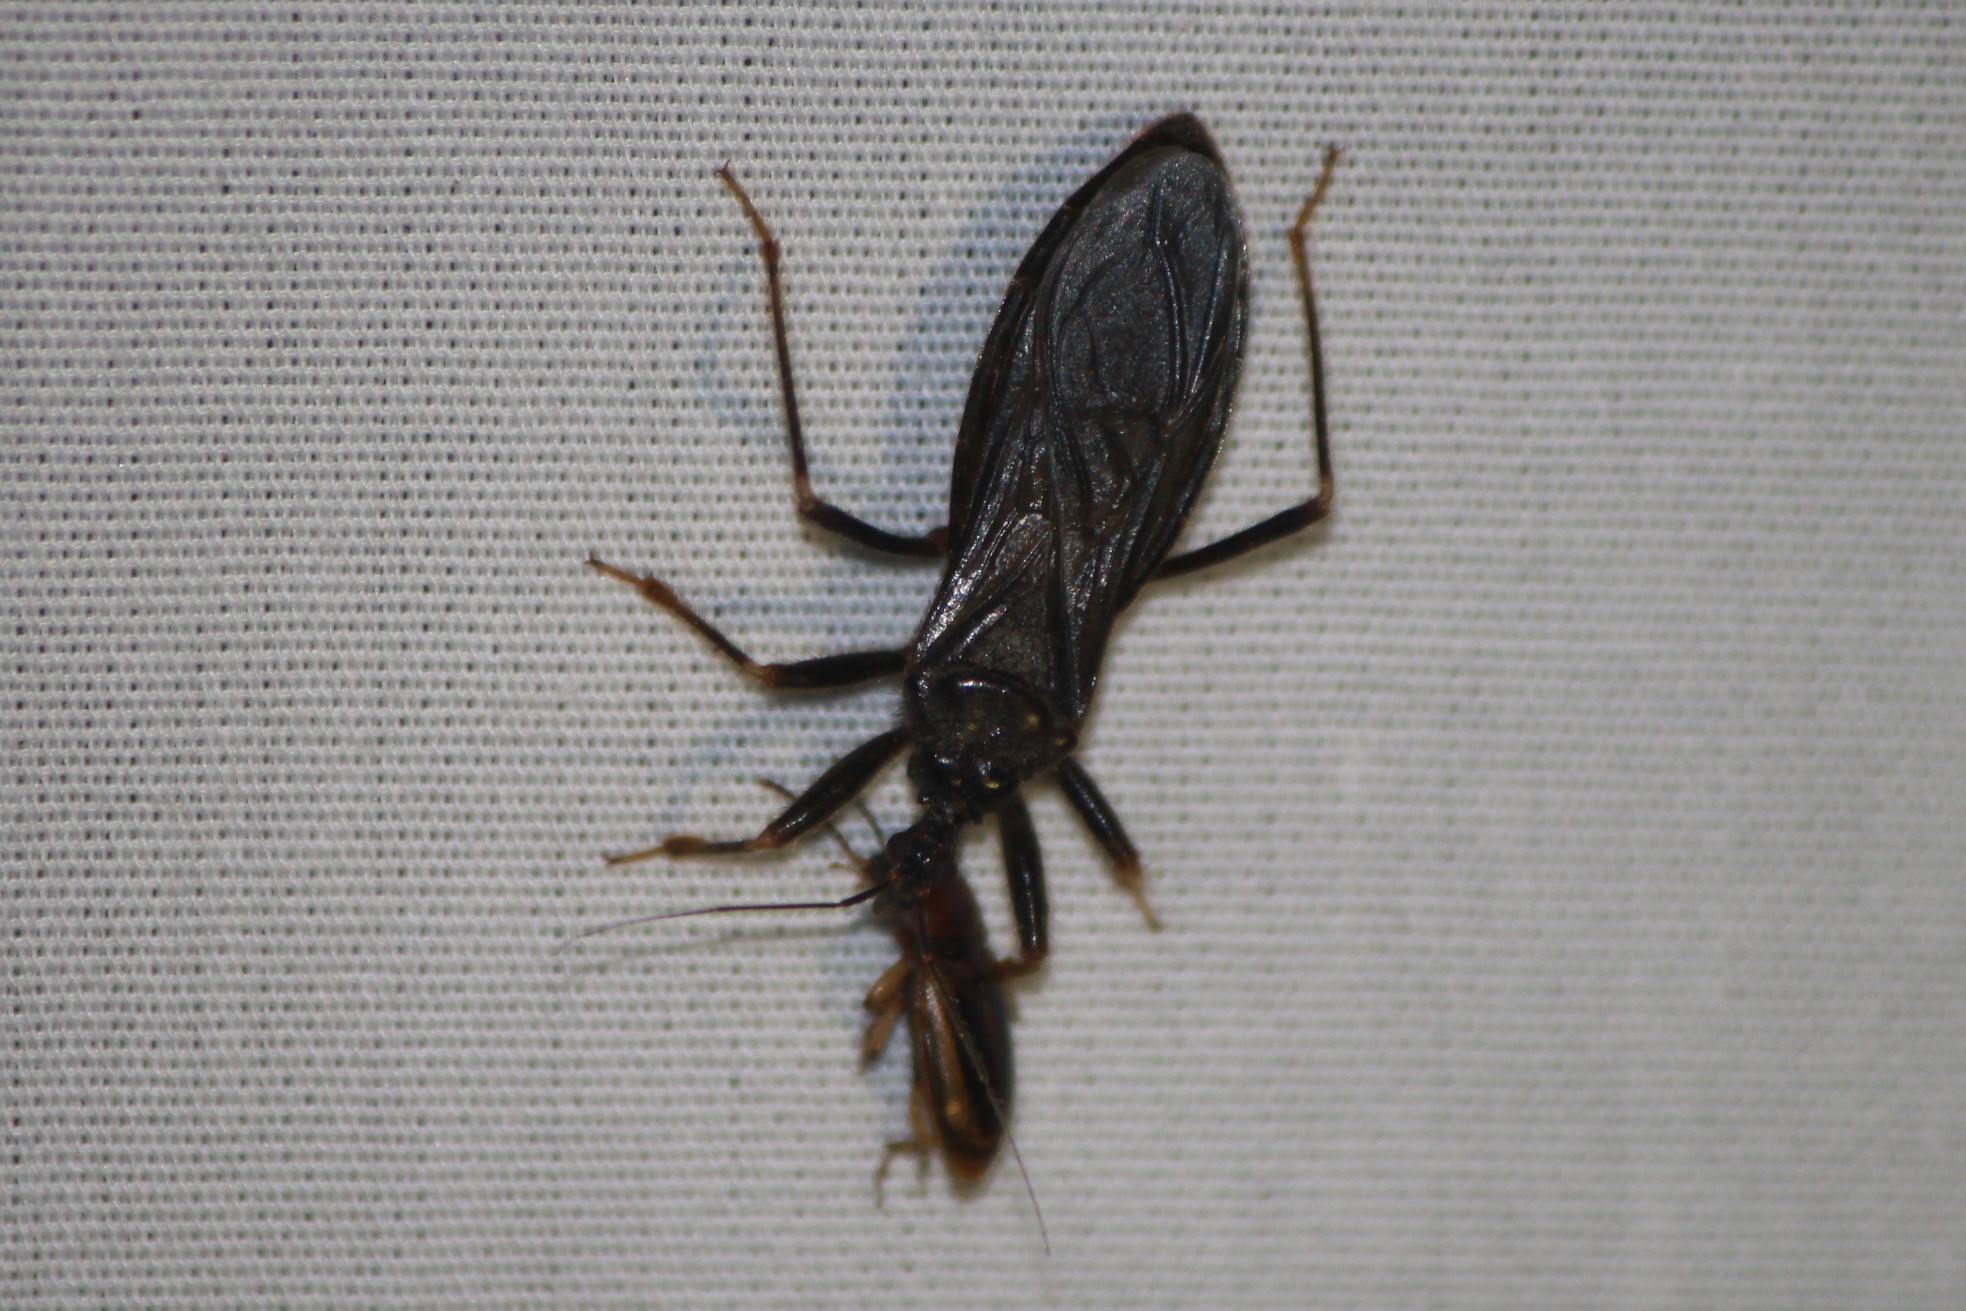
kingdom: Animalia
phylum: Arthropoda
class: Insecta
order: Hemiptera
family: Reduviidae
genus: Reduvius
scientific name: Reduvius personatus
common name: Masked hunter
